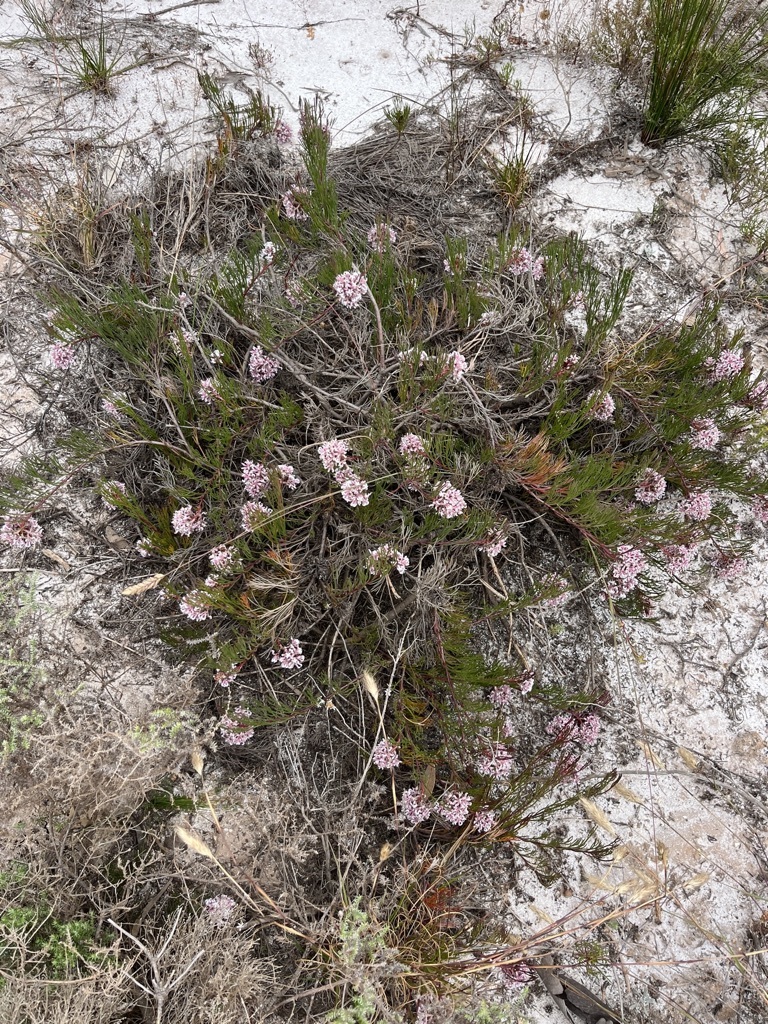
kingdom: Plantae
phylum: Tracheophyta
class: Magnoliopsida
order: Proteales
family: Proteaceae
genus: Serruria
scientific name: Serruria rubricaulis
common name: Red-stem spiderhead
